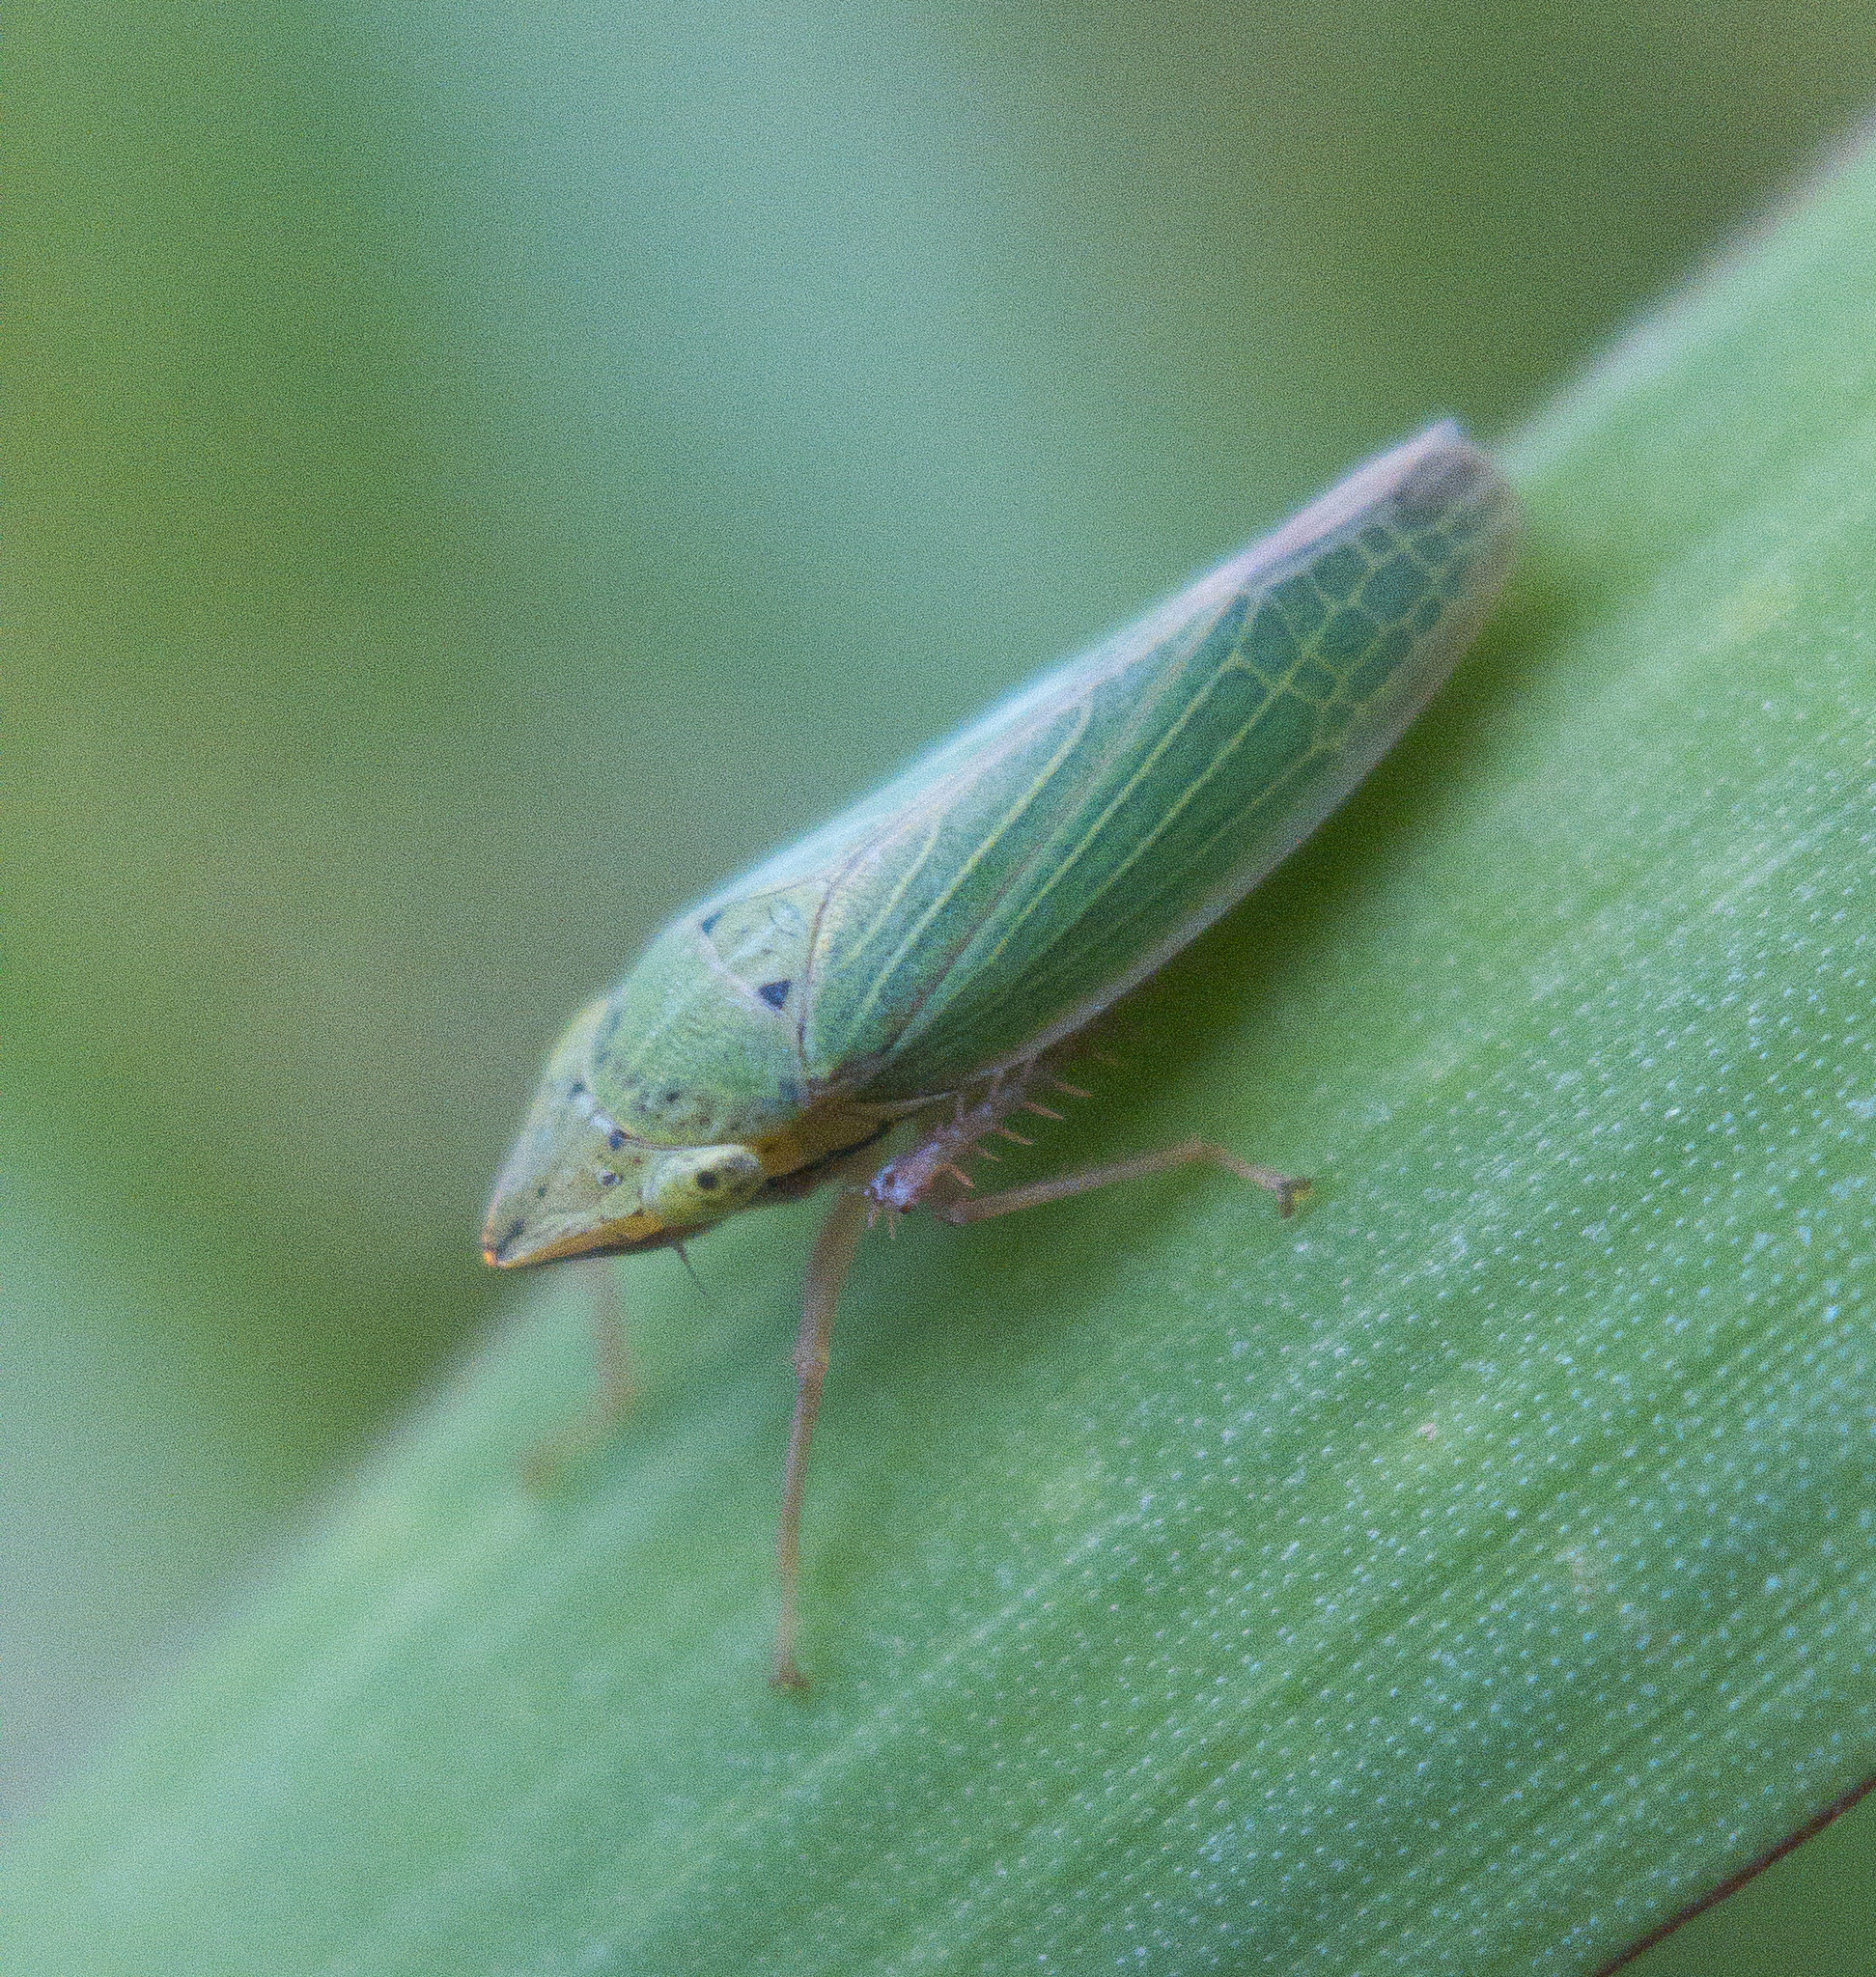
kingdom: Animalia
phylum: Arthropoda
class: Insecta
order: Hemiptera
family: Cicadellidae
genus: Draeculacephala
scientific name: Draeculacephala balli
